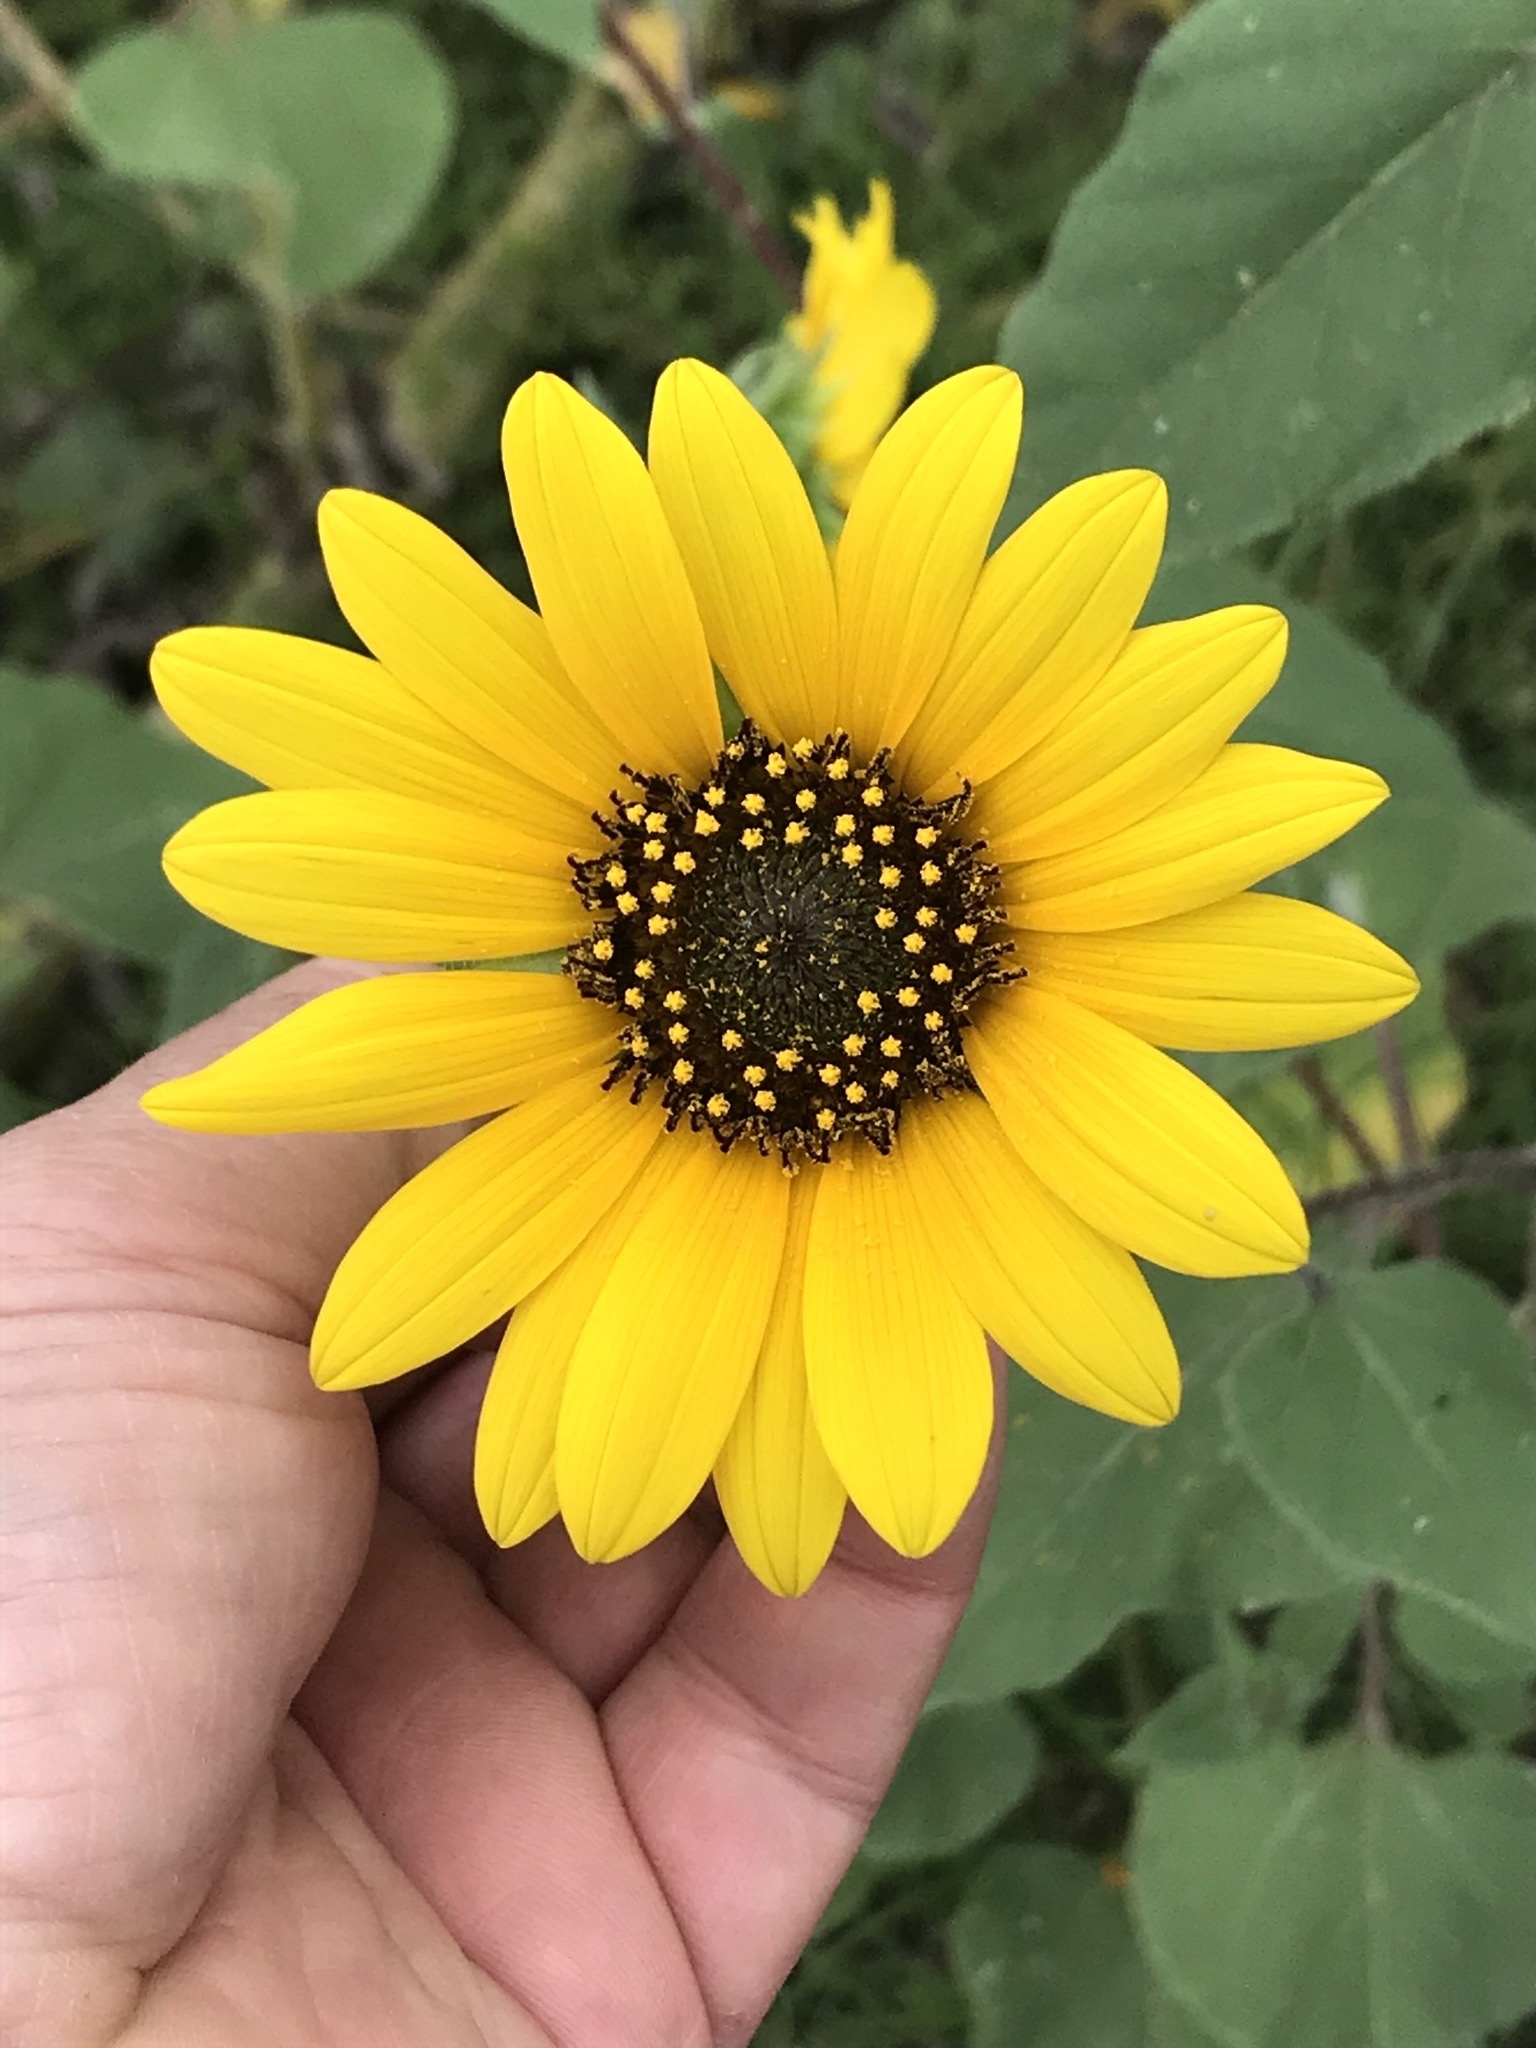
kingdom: Plantae
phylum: Tracheophyta
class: Magnoliopsida
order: Asterales
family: Asteraceae
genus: Helianthus
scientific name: Helianthus annuus
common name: Sunflower
